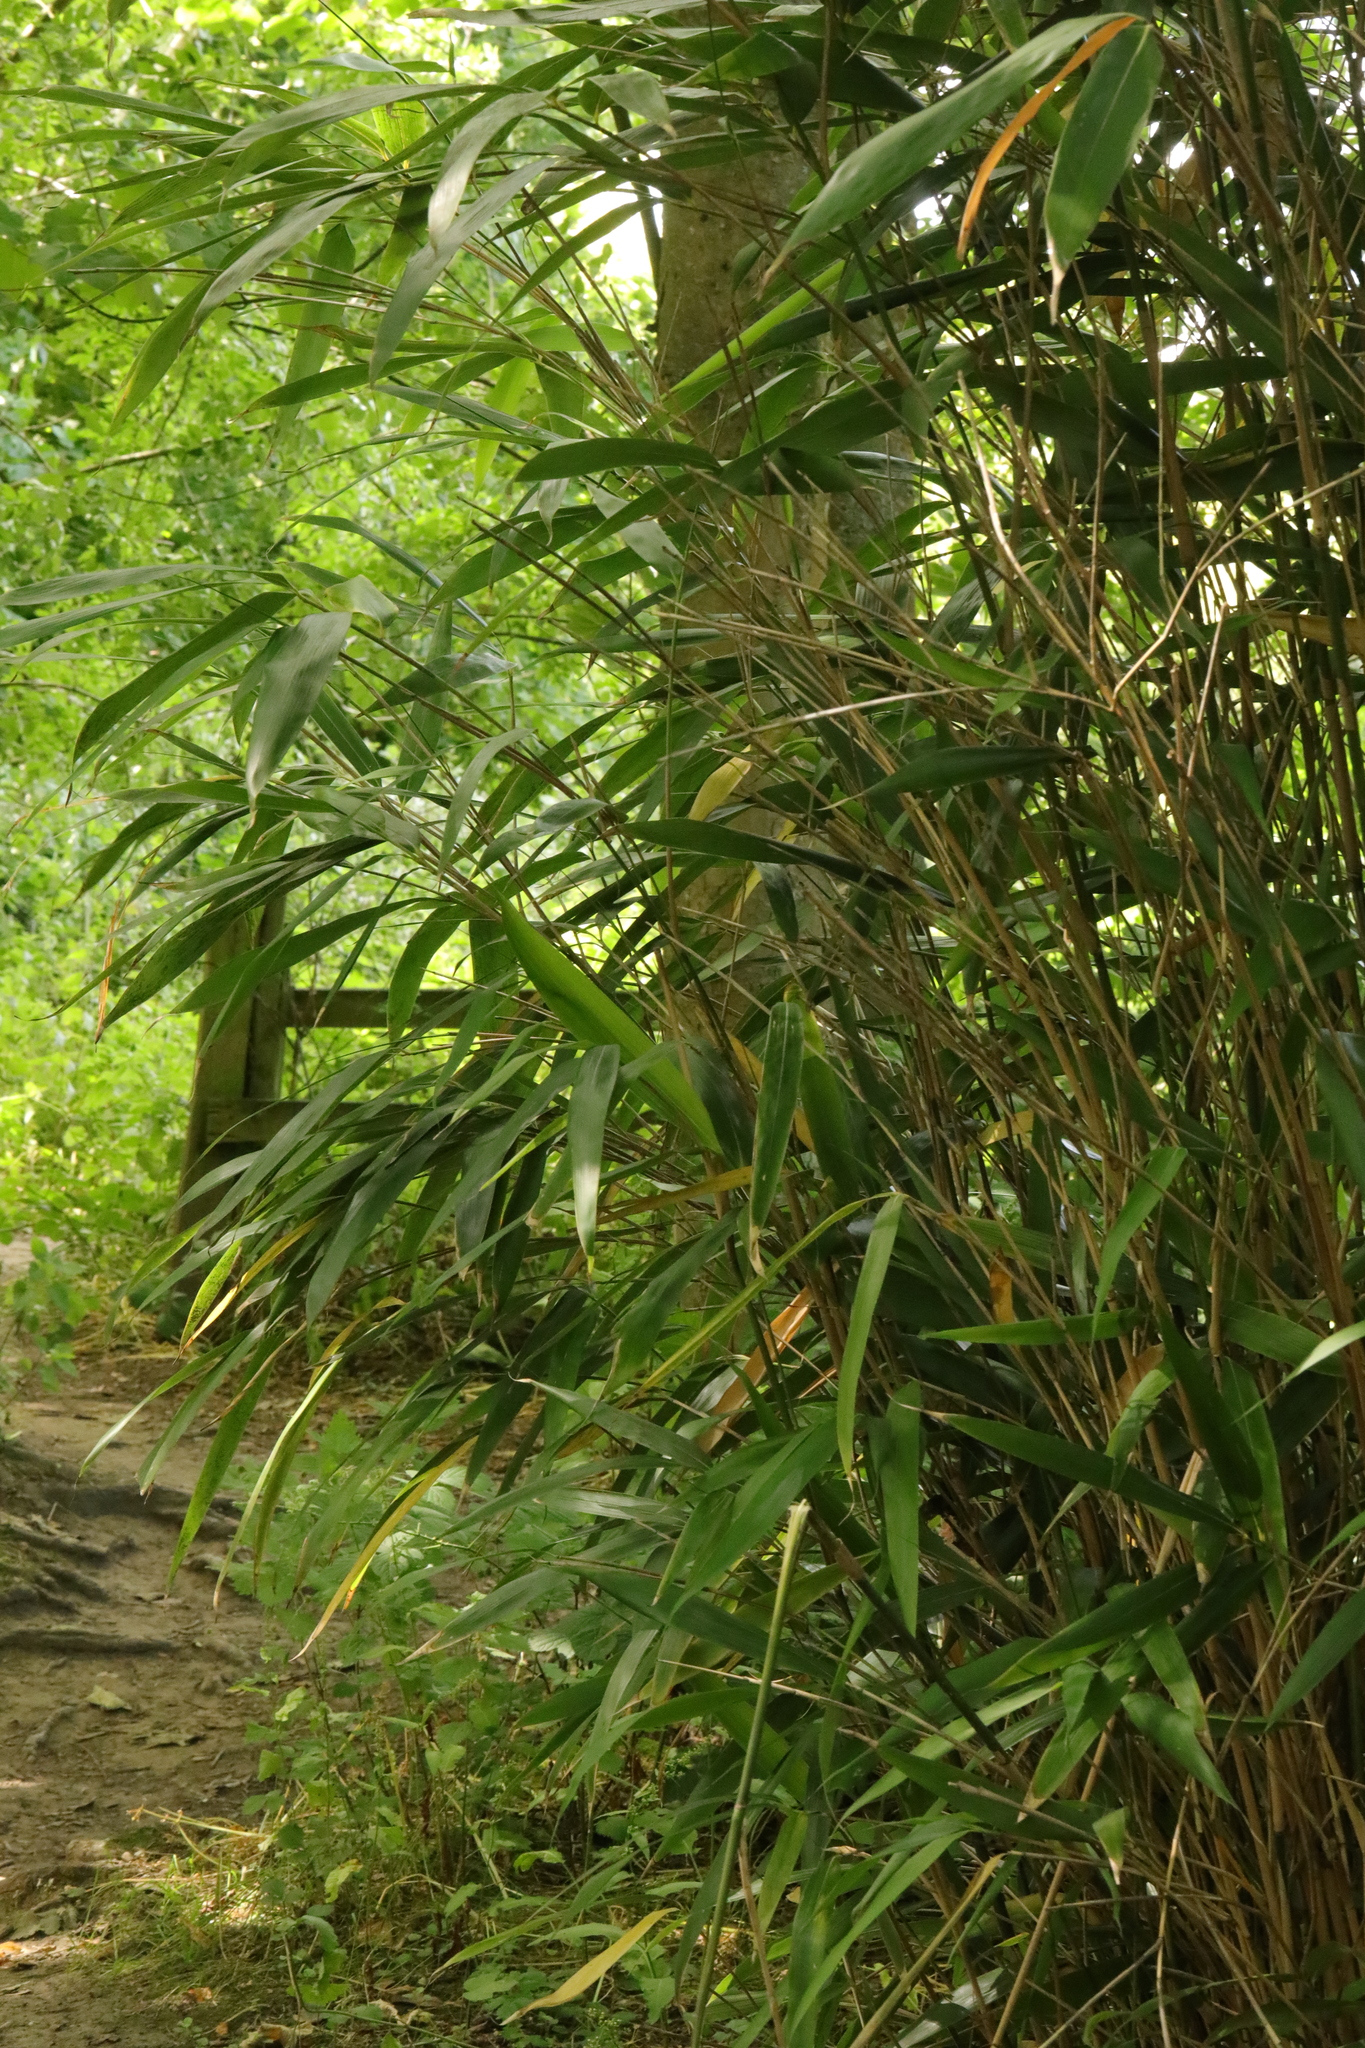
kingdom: Plantae
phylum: Tracheophyta
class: Liliopsida
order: Poales
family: Poaceae
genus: Pseudosasa
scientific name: Pseudosasa japonica
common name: Arrow bamboo
